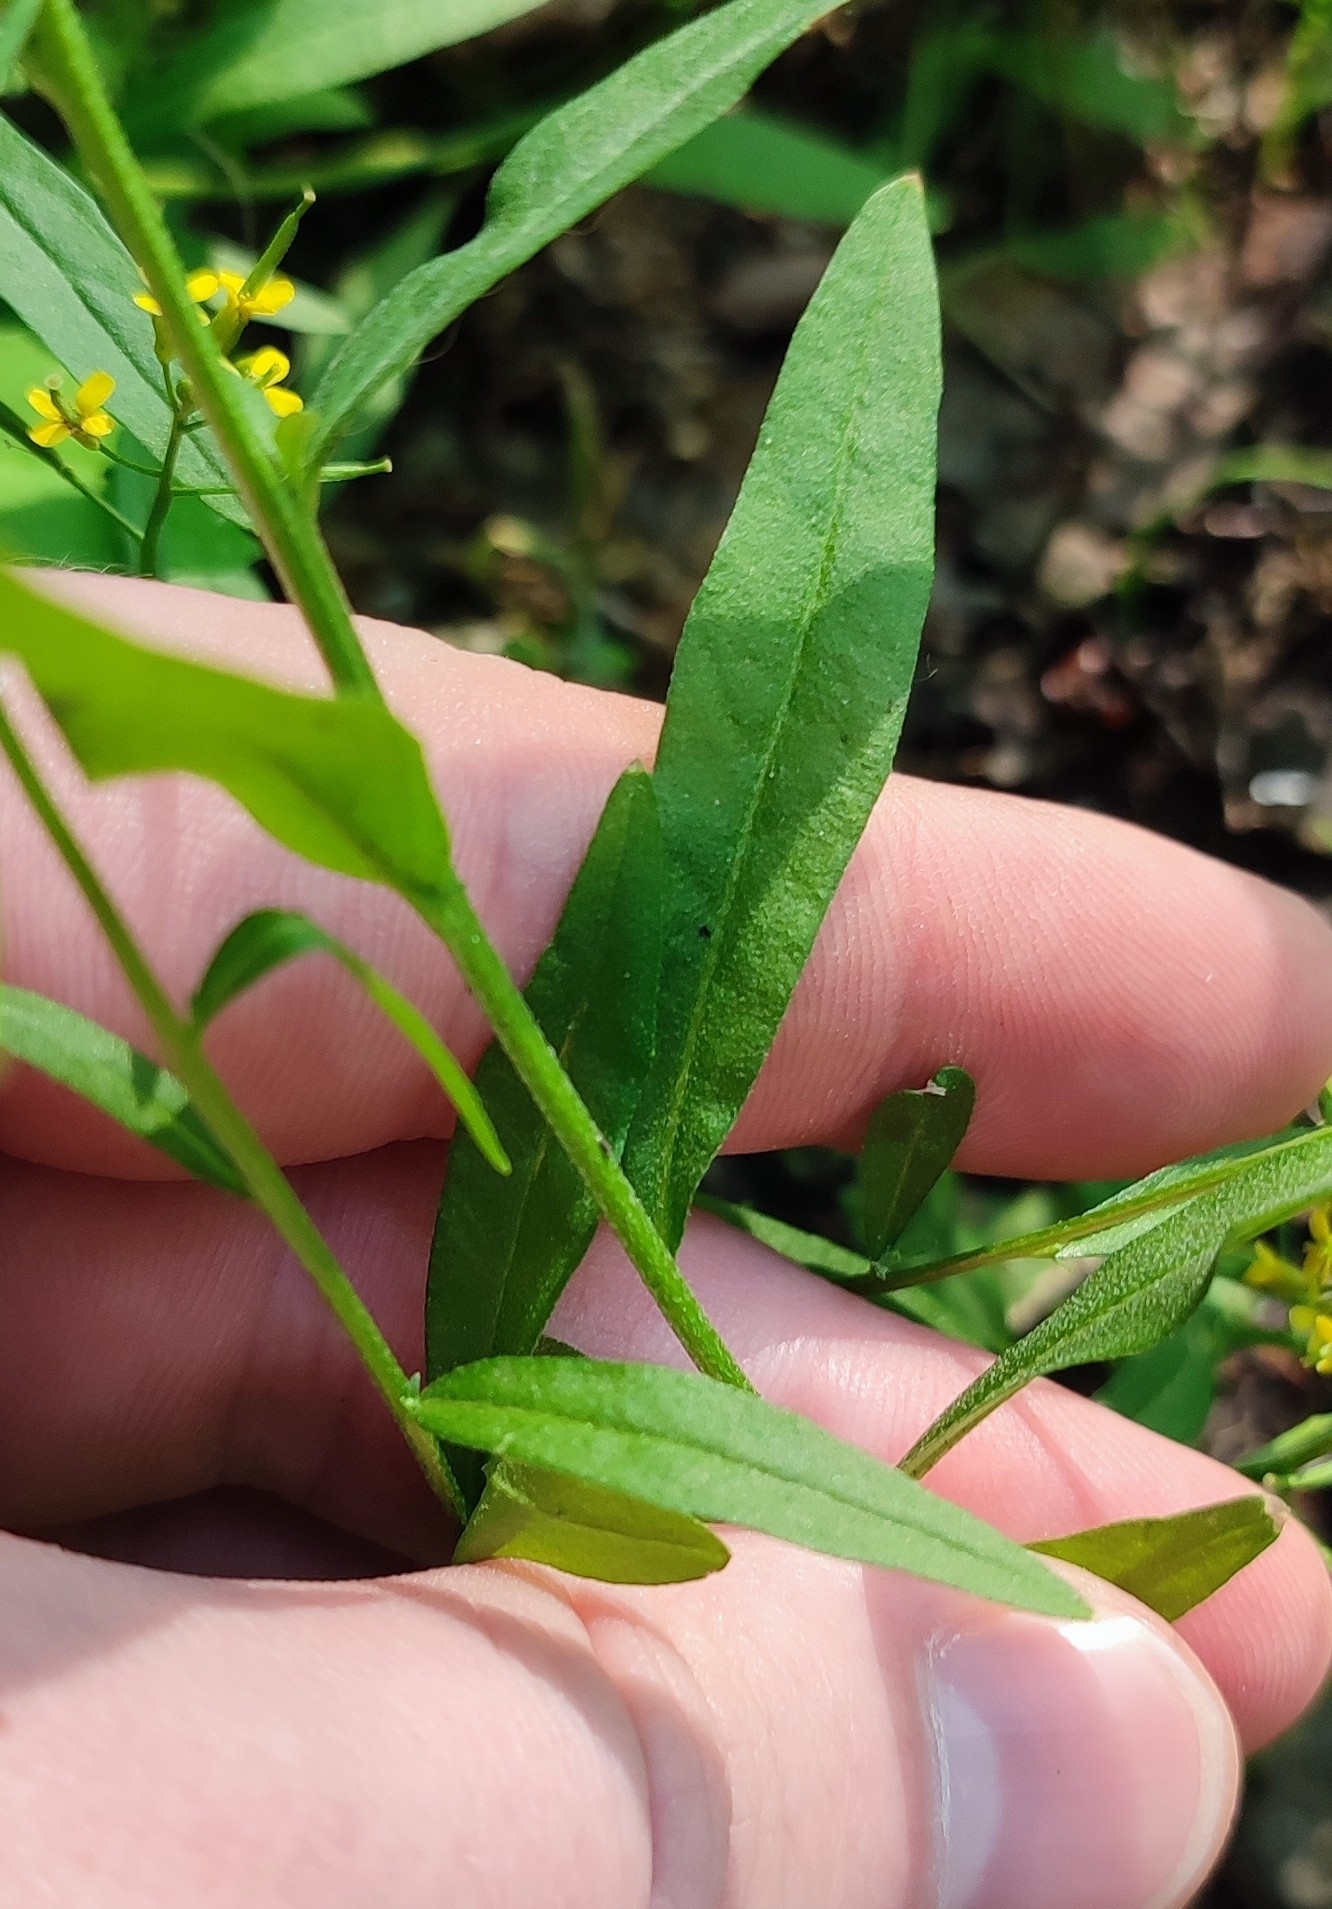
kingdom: Plantae
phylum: Tracheophyta
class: Magnoliopsida
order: Brassicales
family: Brassicaceae
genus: Erysimum
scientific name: Erysimum cheiranthoides
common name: Treacle mustard
